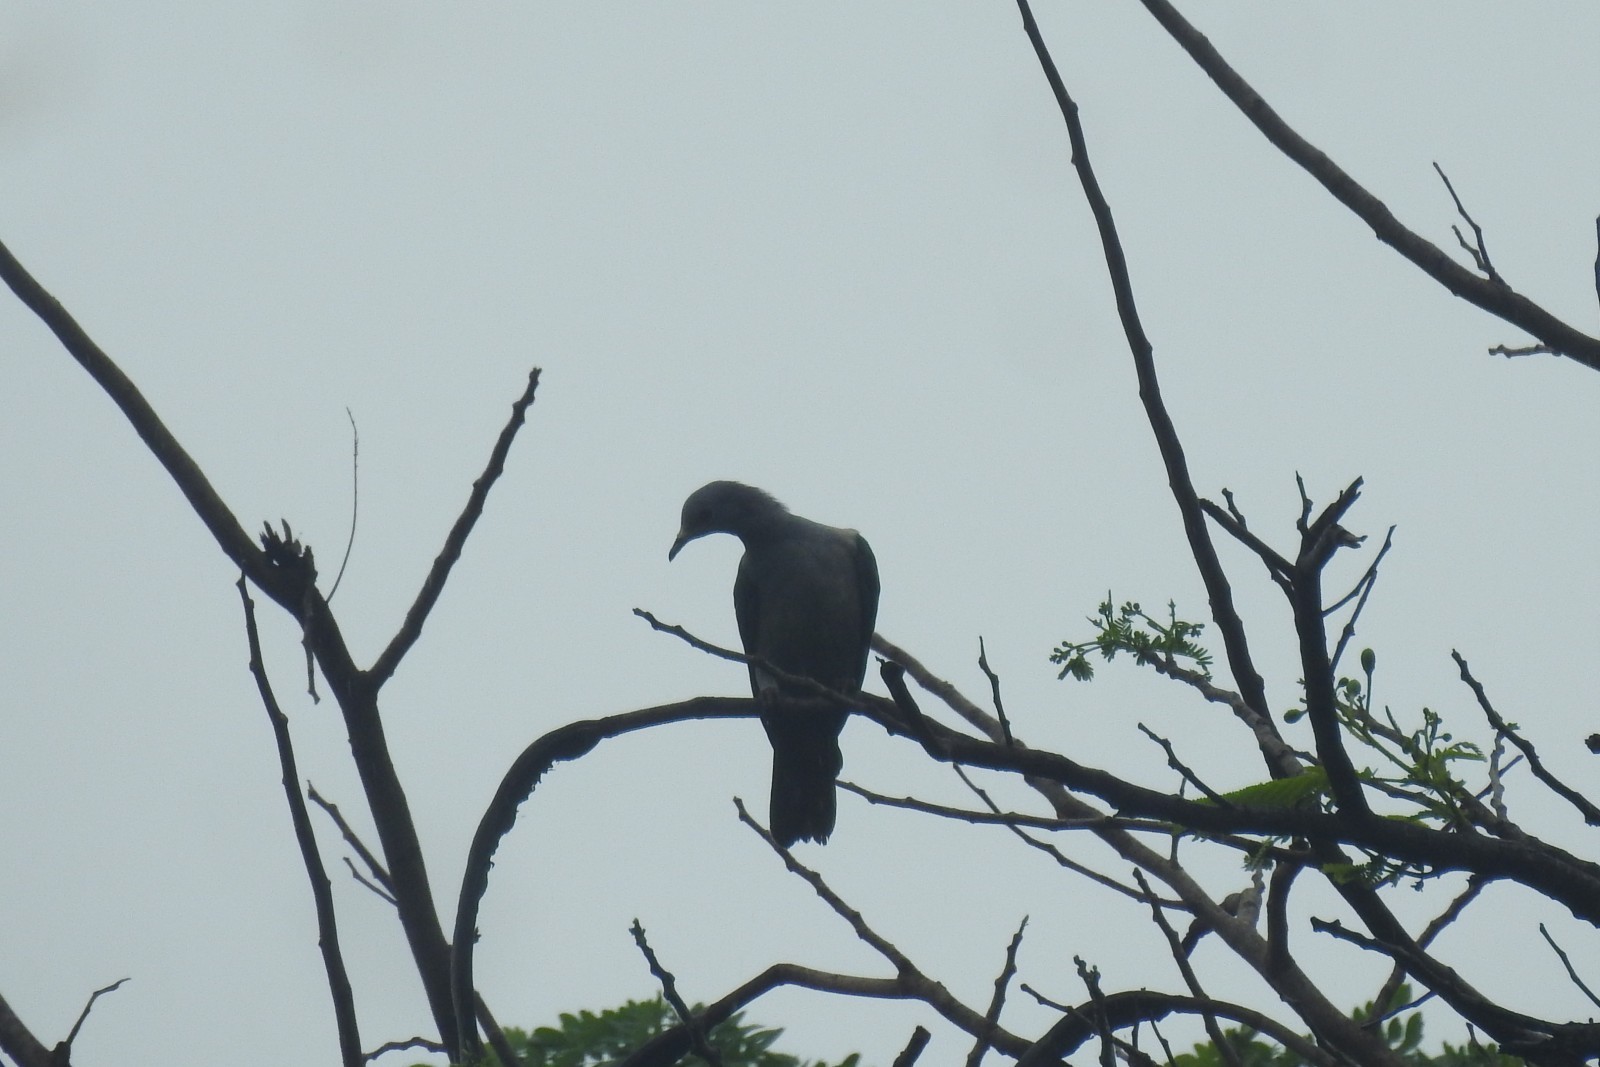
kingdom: Animalia
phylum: Chordata
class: Aves
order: Columbiformes
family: Columbidae
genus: Ducula
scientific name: Ducula aenea
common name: Green imperial pigeon
